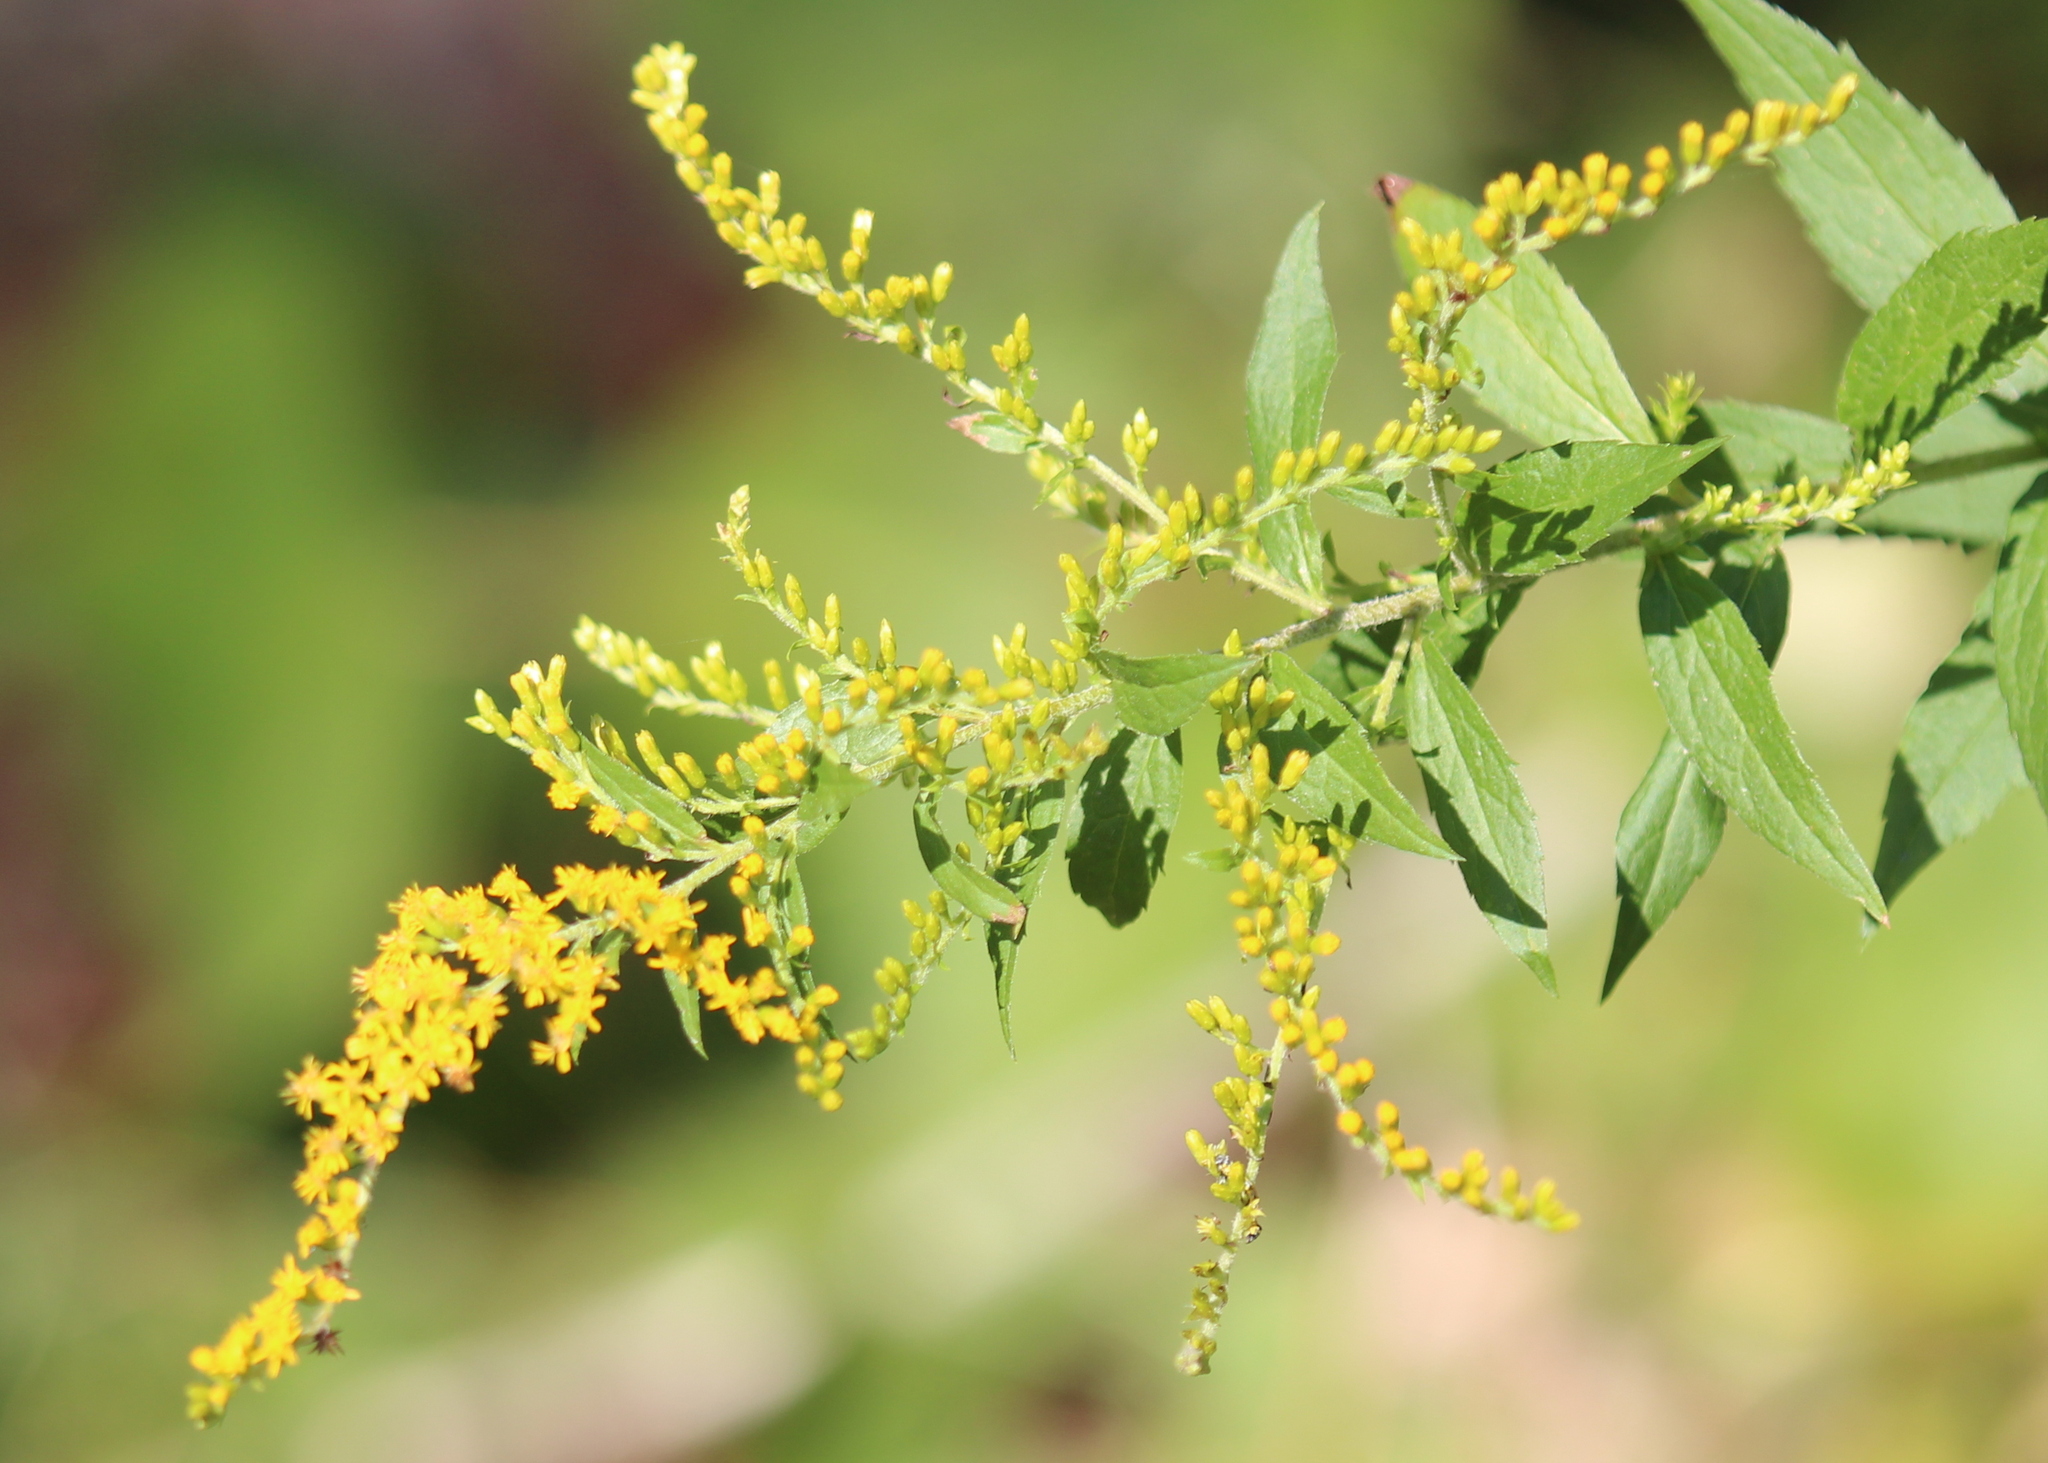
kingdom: Plantae
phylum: Tracheophyta
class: Magnoliopsida
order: Asterales
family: Asteraceae
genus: Solidago
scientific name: Solidago rugosa
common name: Rough-stemmed goldenrod
